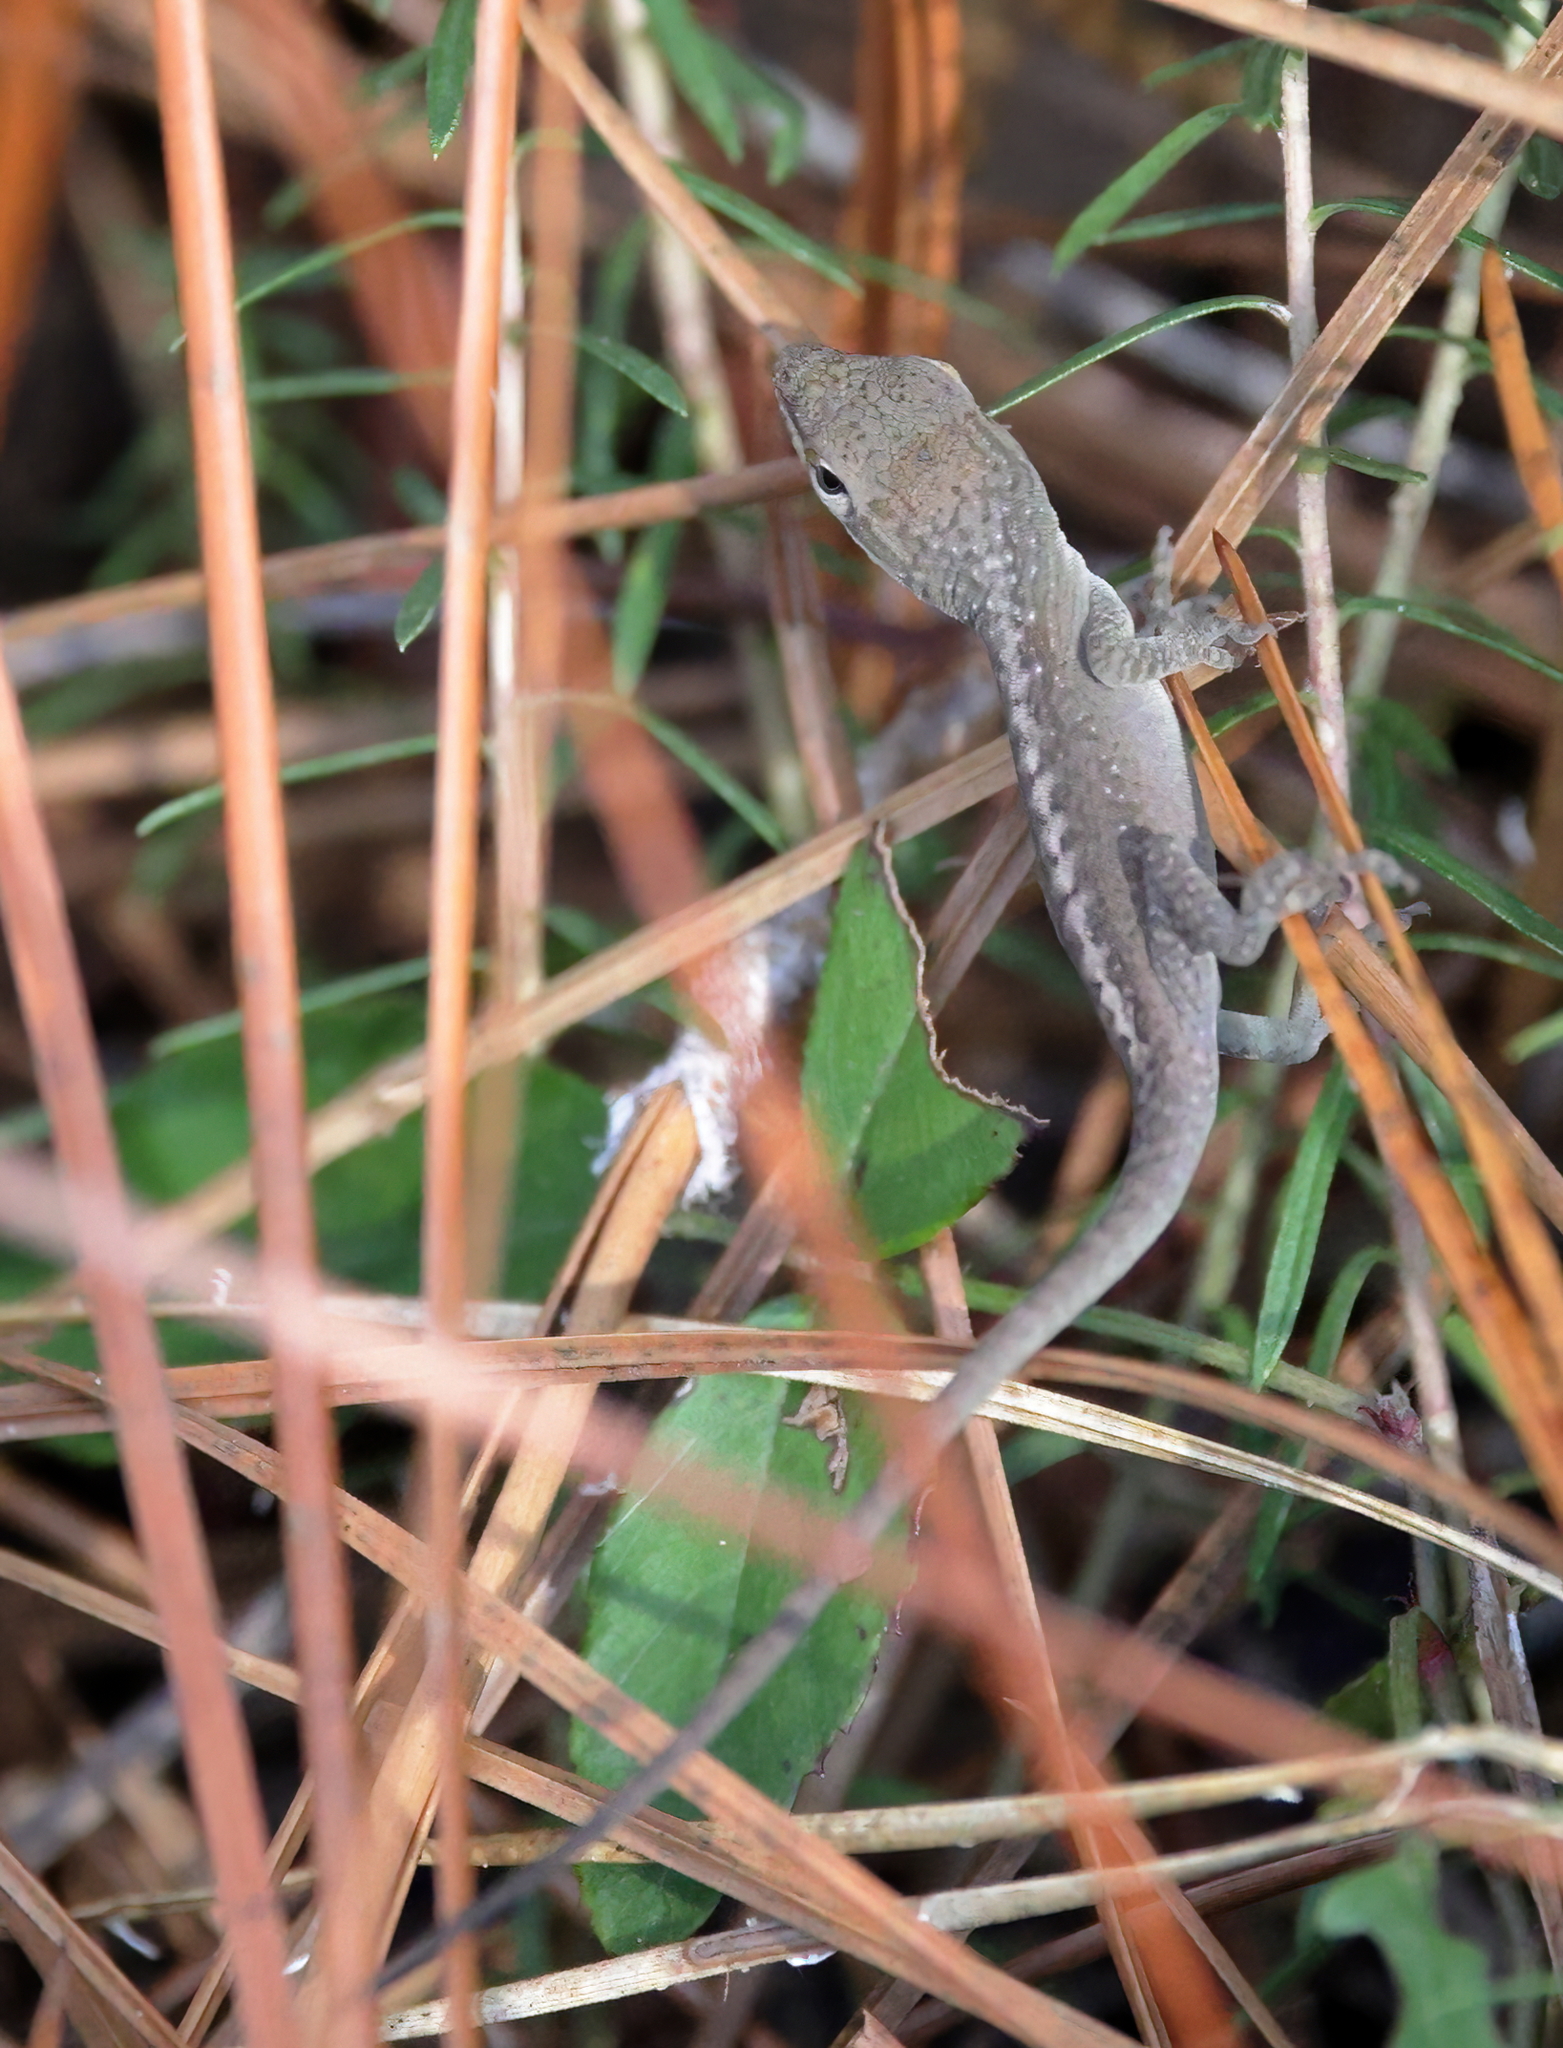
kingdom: Animalia
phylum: Chordata
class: Squamata
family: Dactyloidae
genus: Anolis
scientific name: Anolis carolinensis
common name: Green anole
